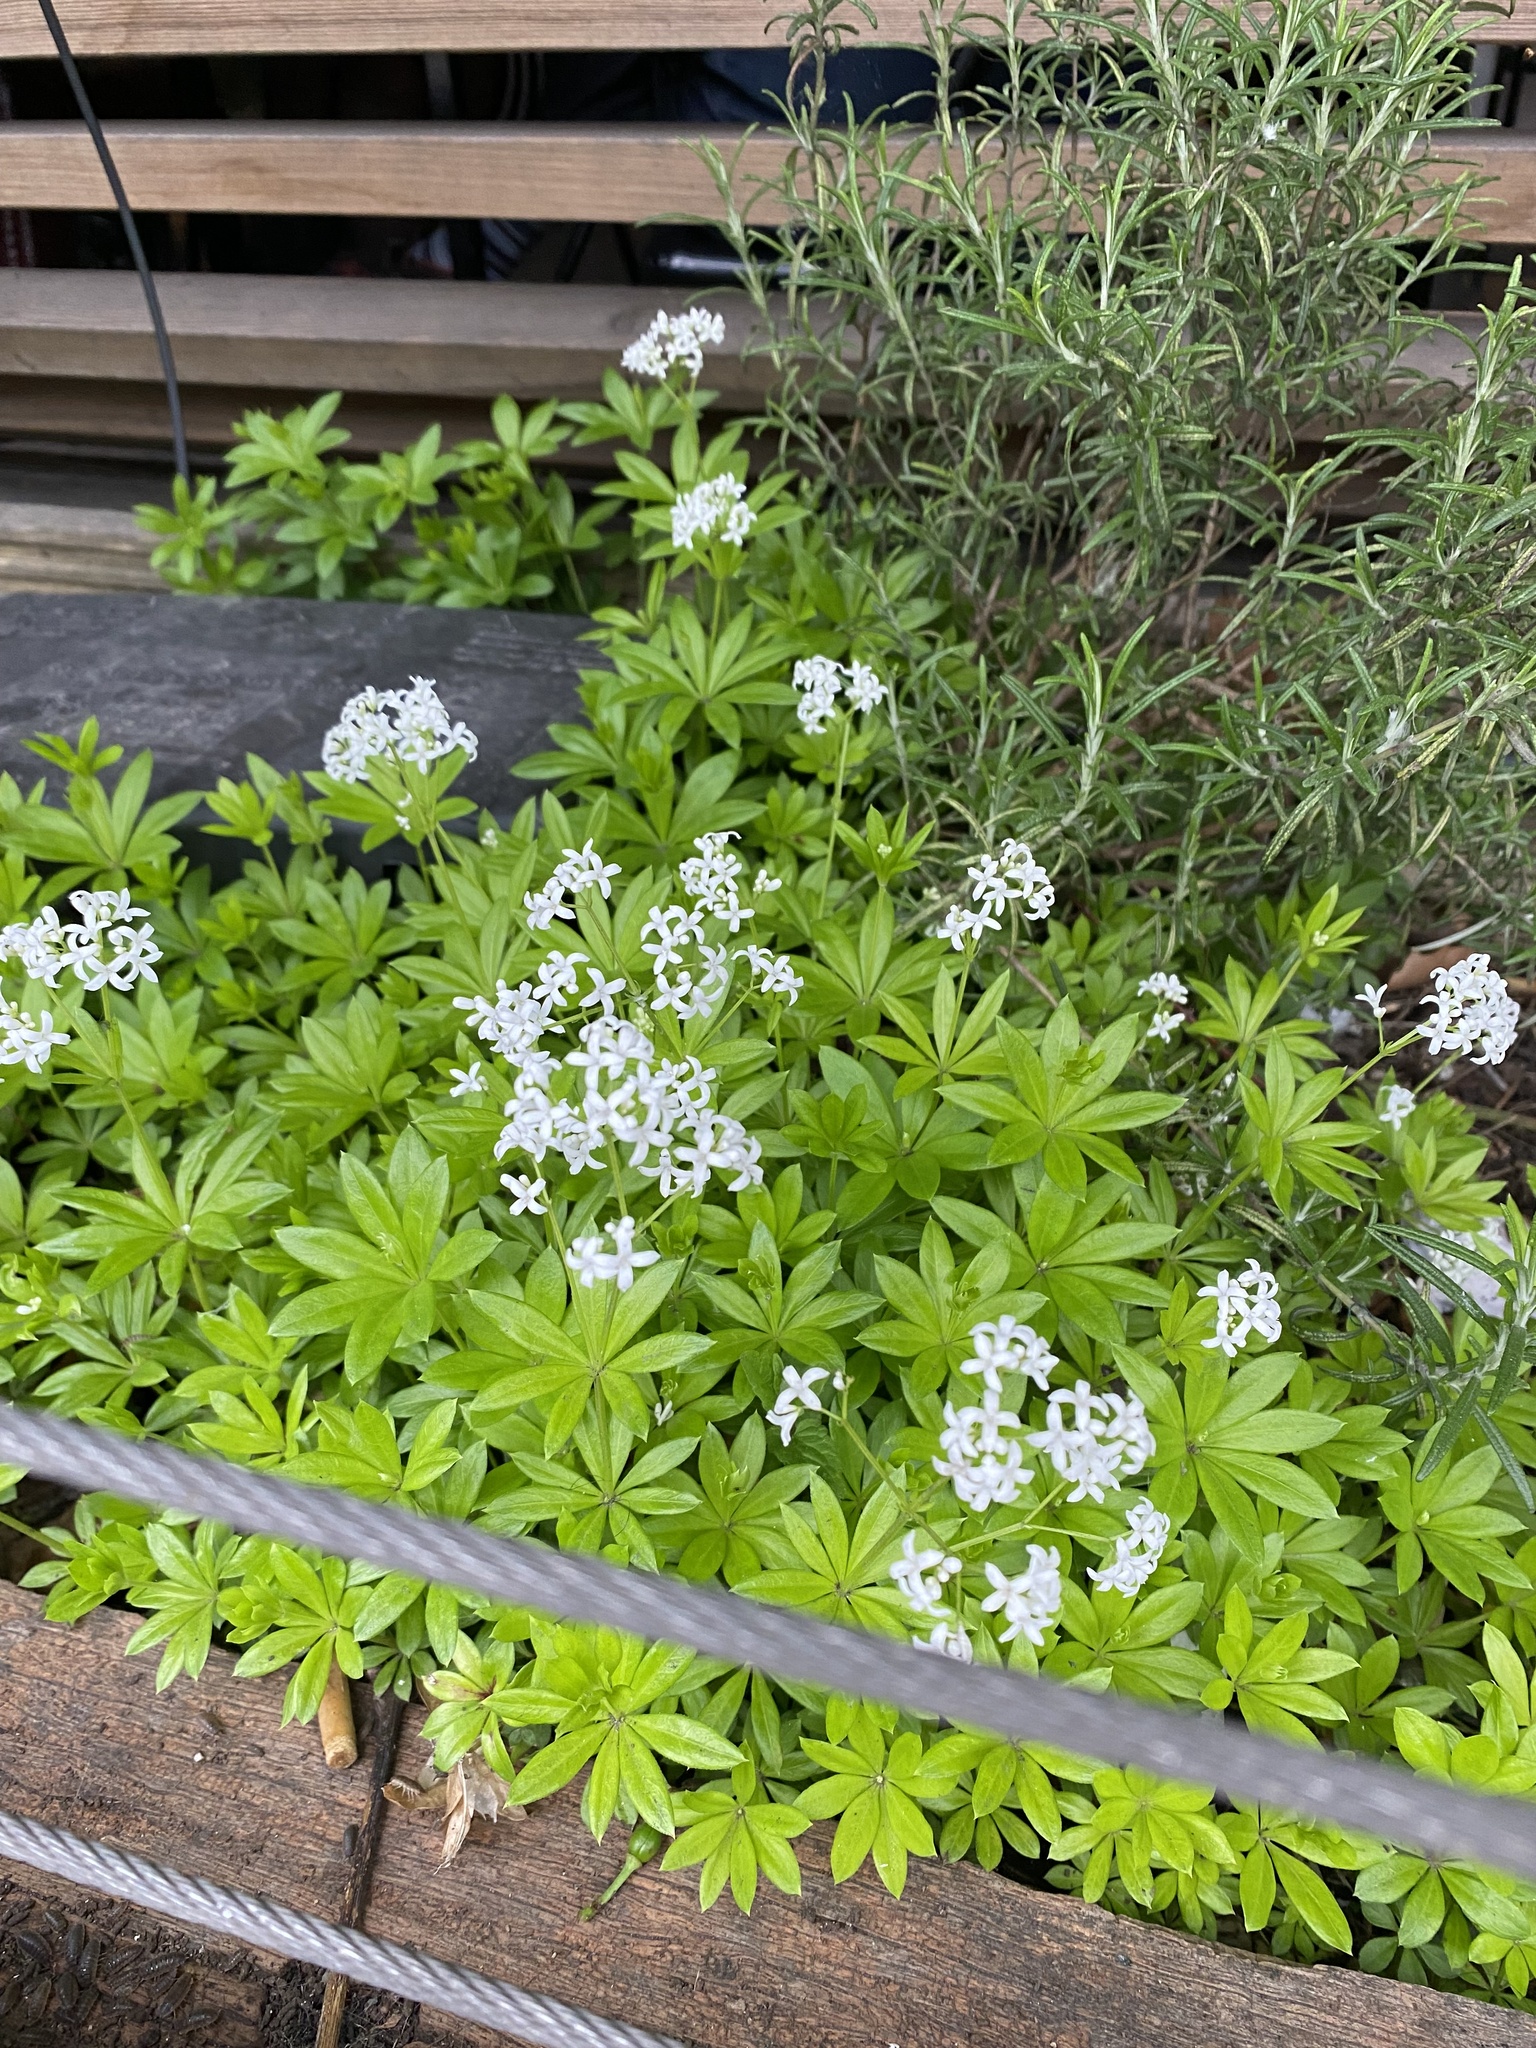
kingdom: Plantae
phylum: Tracheophyta
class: Magnoliopsida
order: Gentianales
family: Rubiaceae
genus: Galium
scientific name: Galium odoratum
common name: Sweet woodruff
